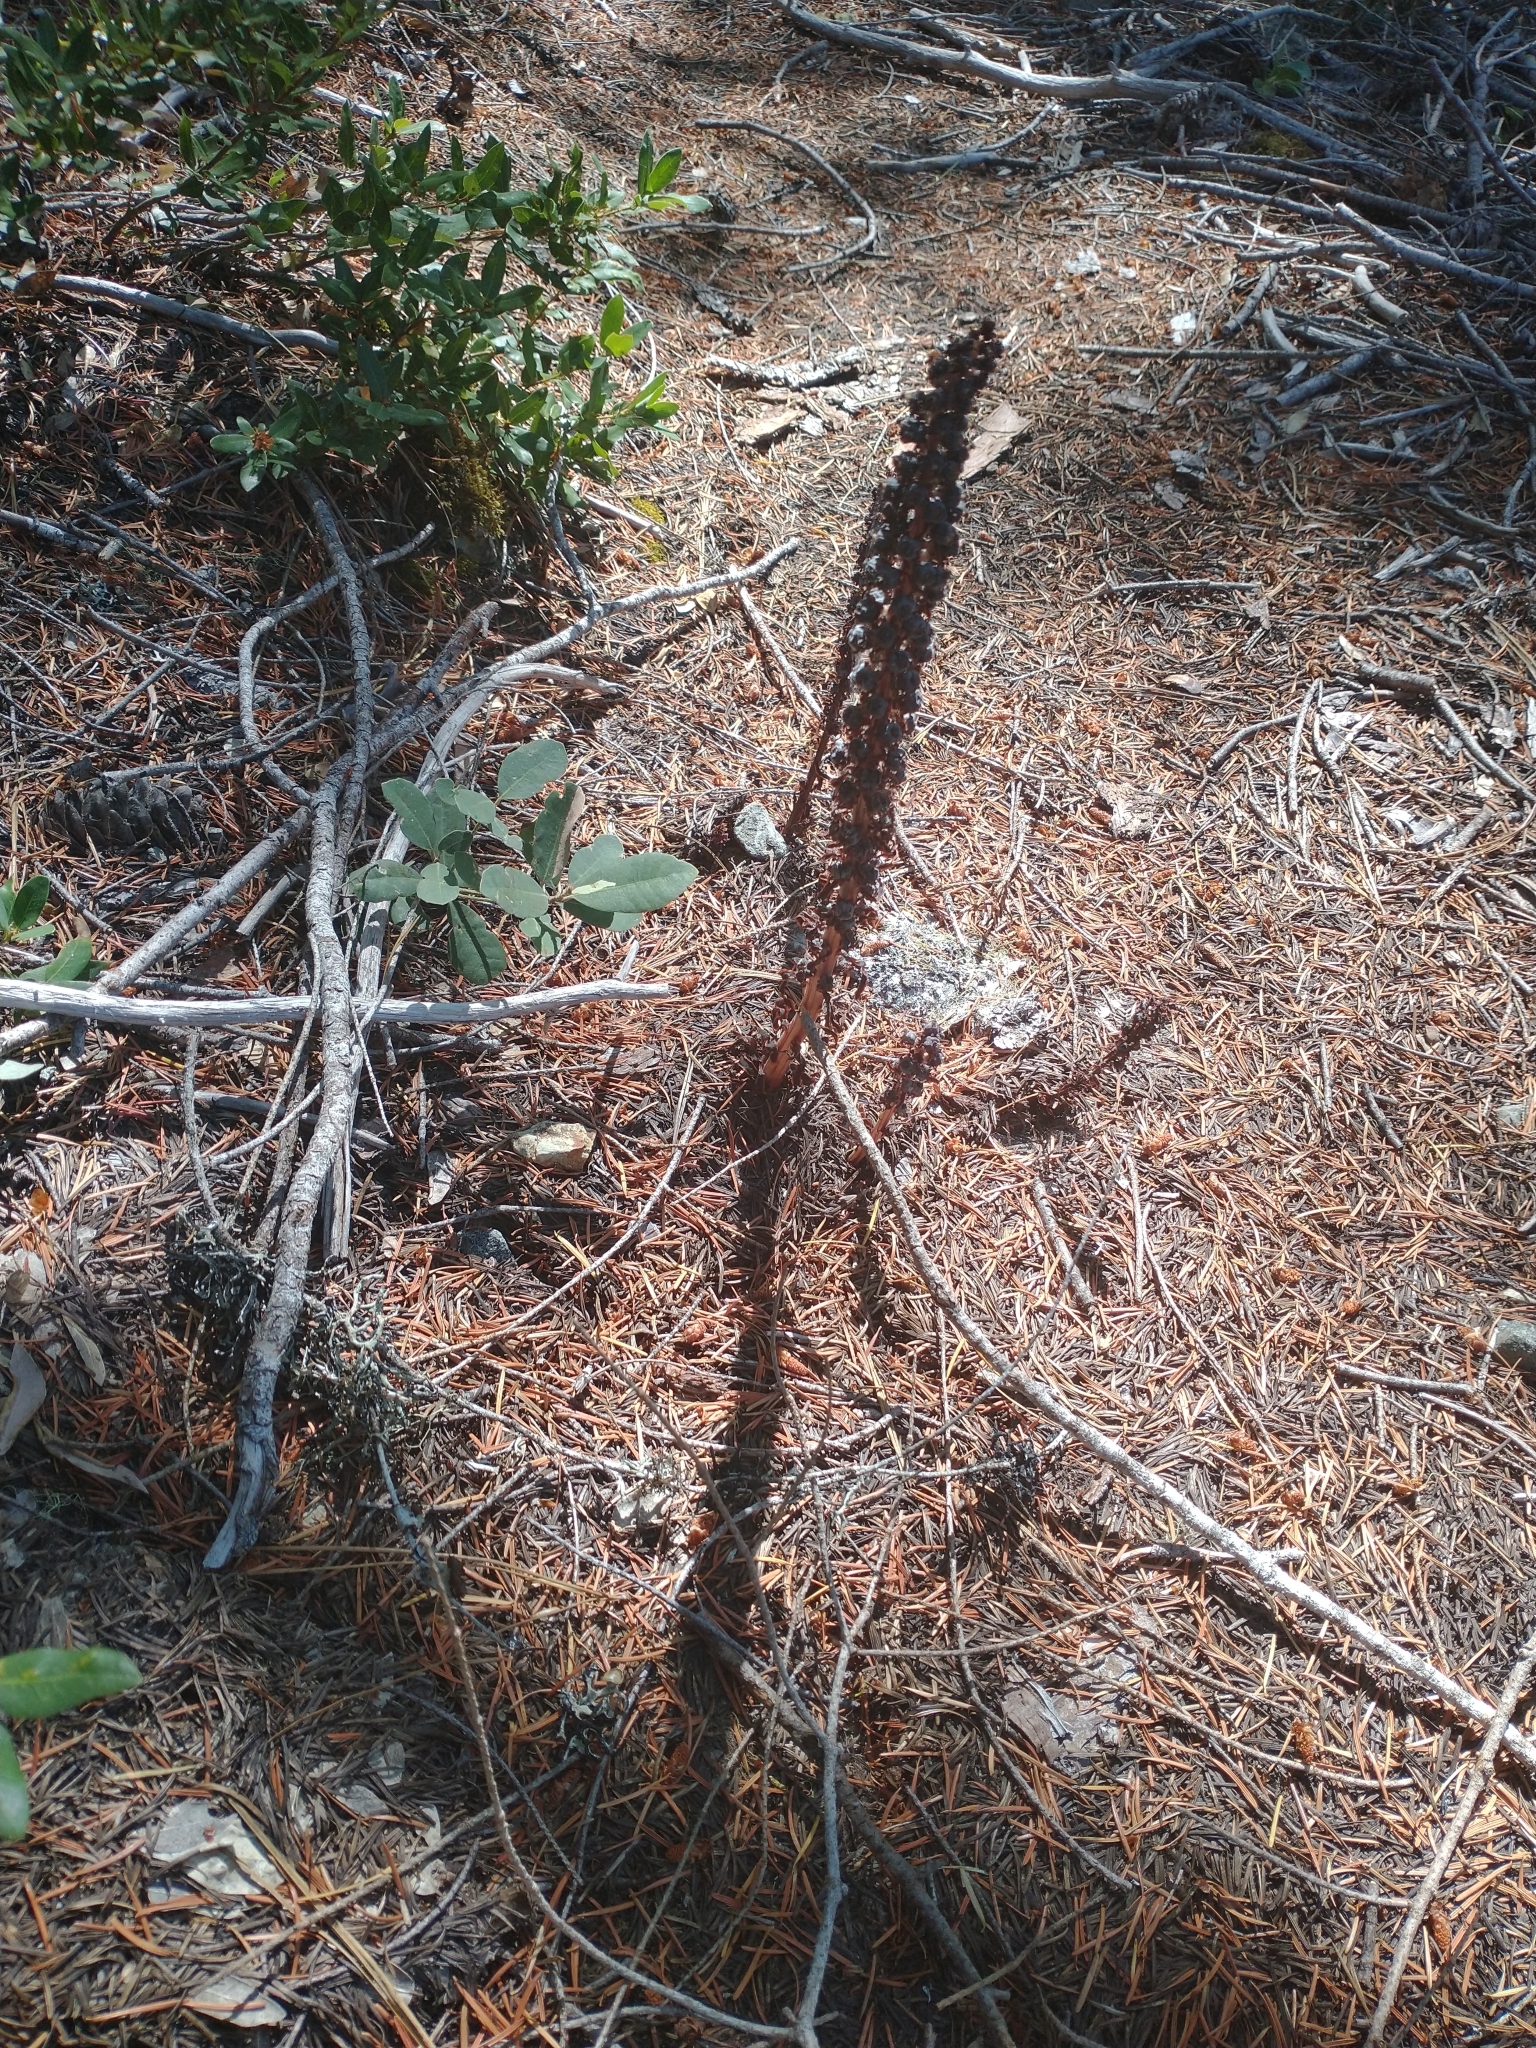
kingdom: Plantae
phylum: Tracheophyta
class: Magnoliopsida
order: Ericales
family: Ericaceae
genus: Allotropa
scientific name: Allotropa virgata
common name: Candy-striped allotropa
